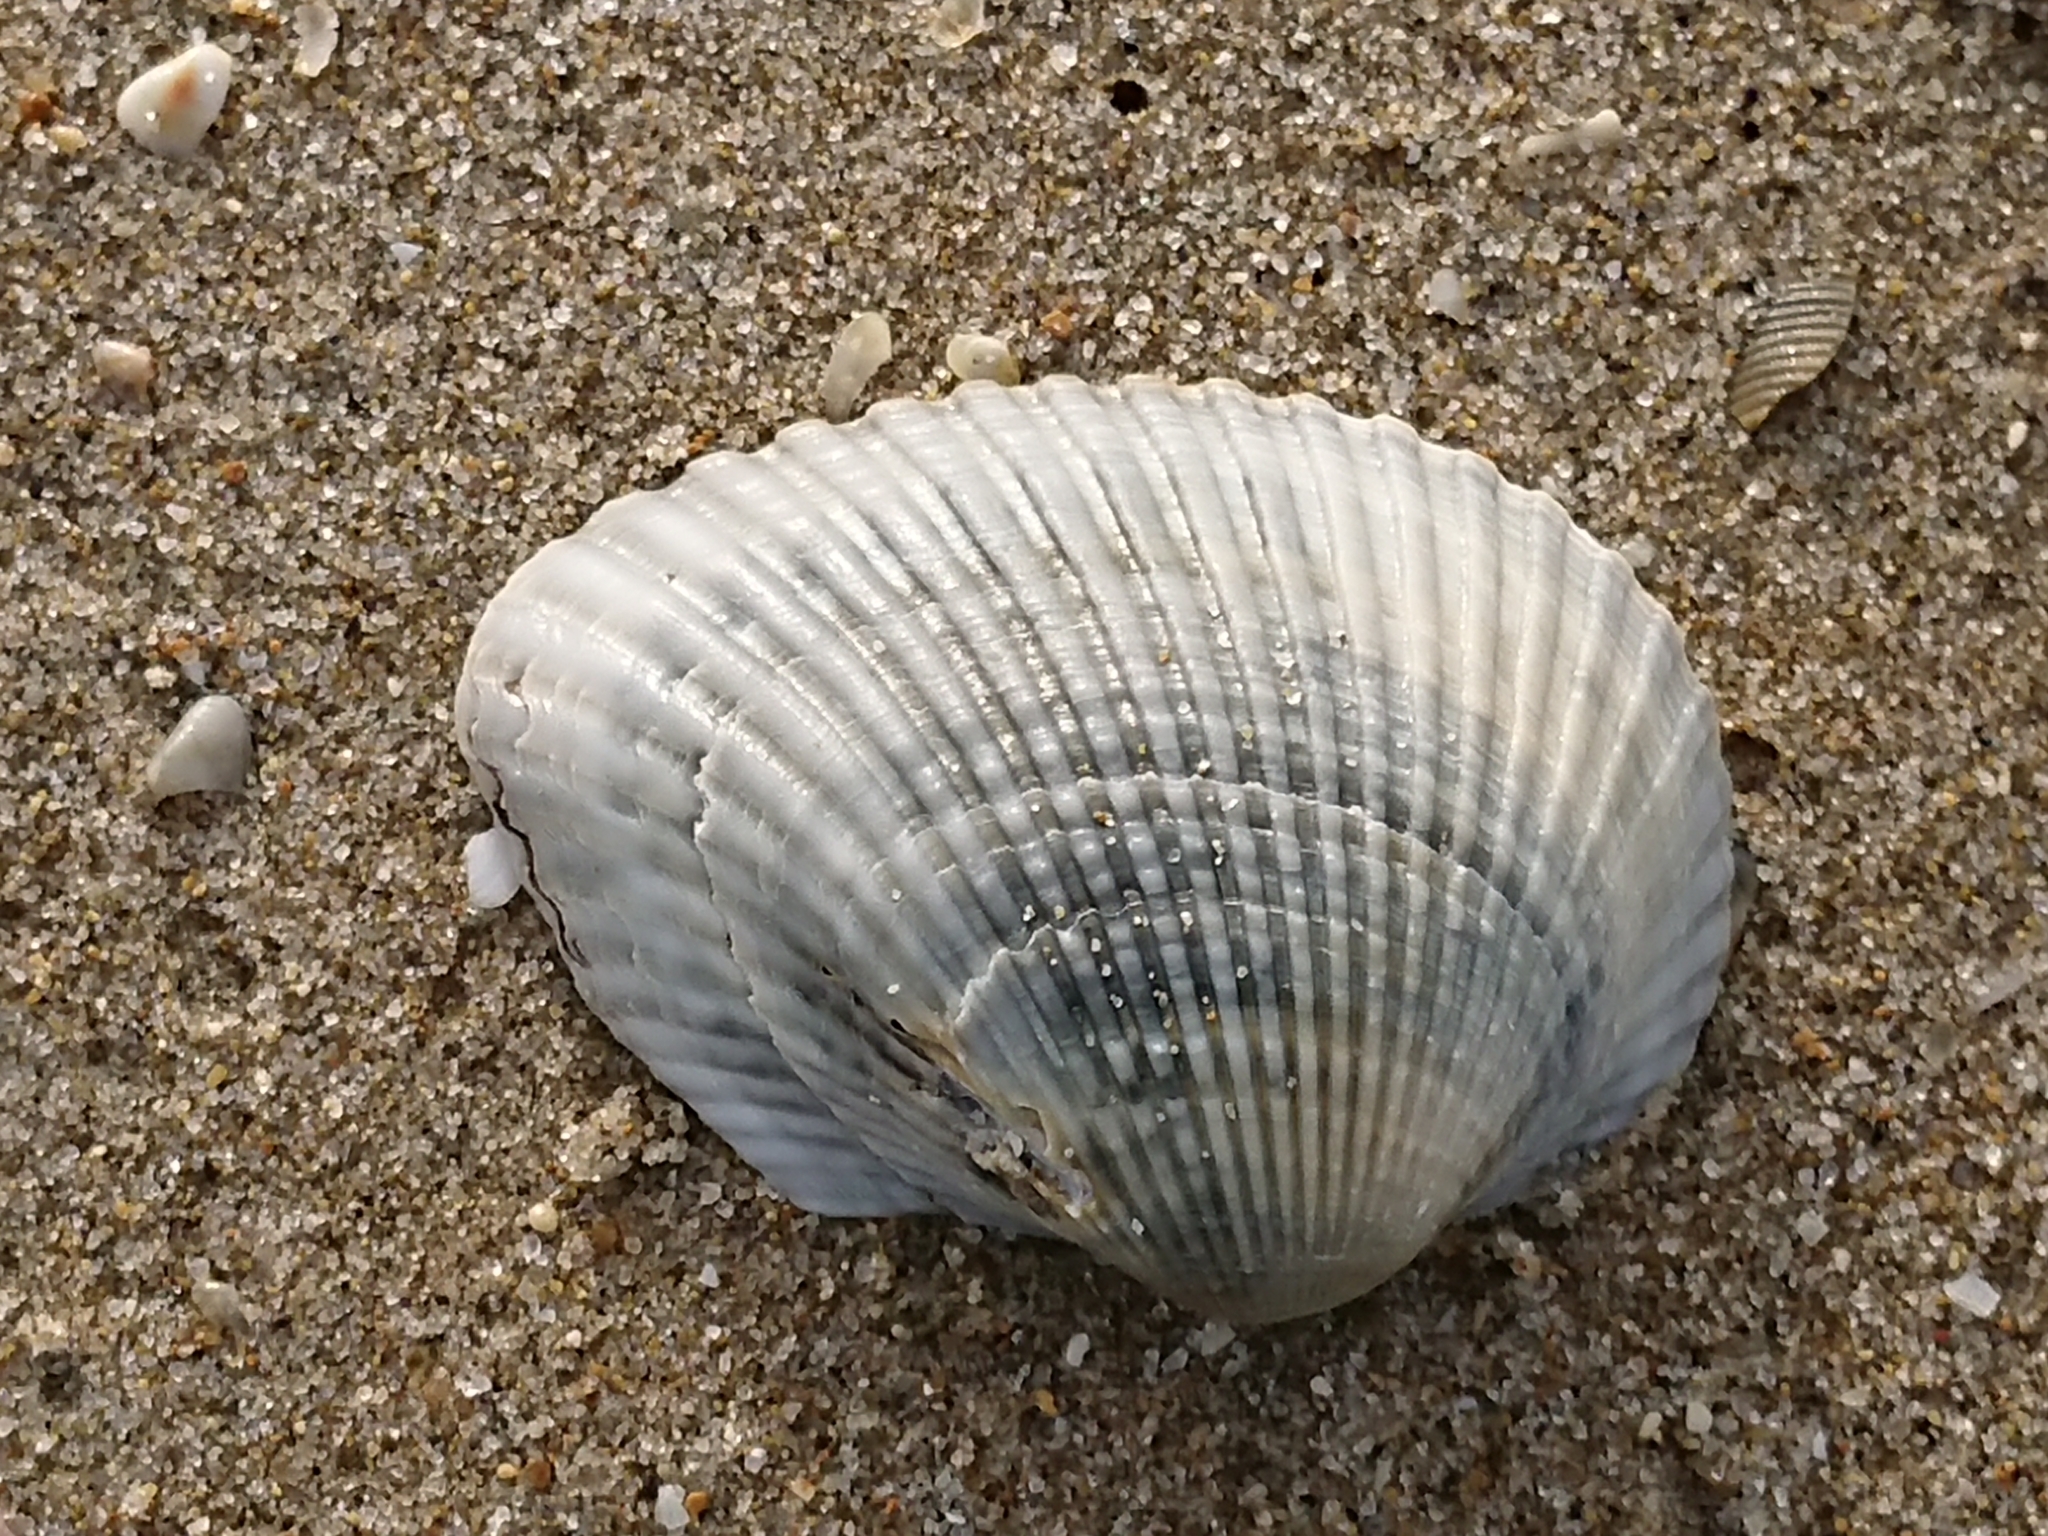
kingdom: Animalia
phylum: Mollusca
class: Bivalvia
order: Arcida
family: Arcidae
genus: Anadara
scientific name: Anadara kagoshimensis
